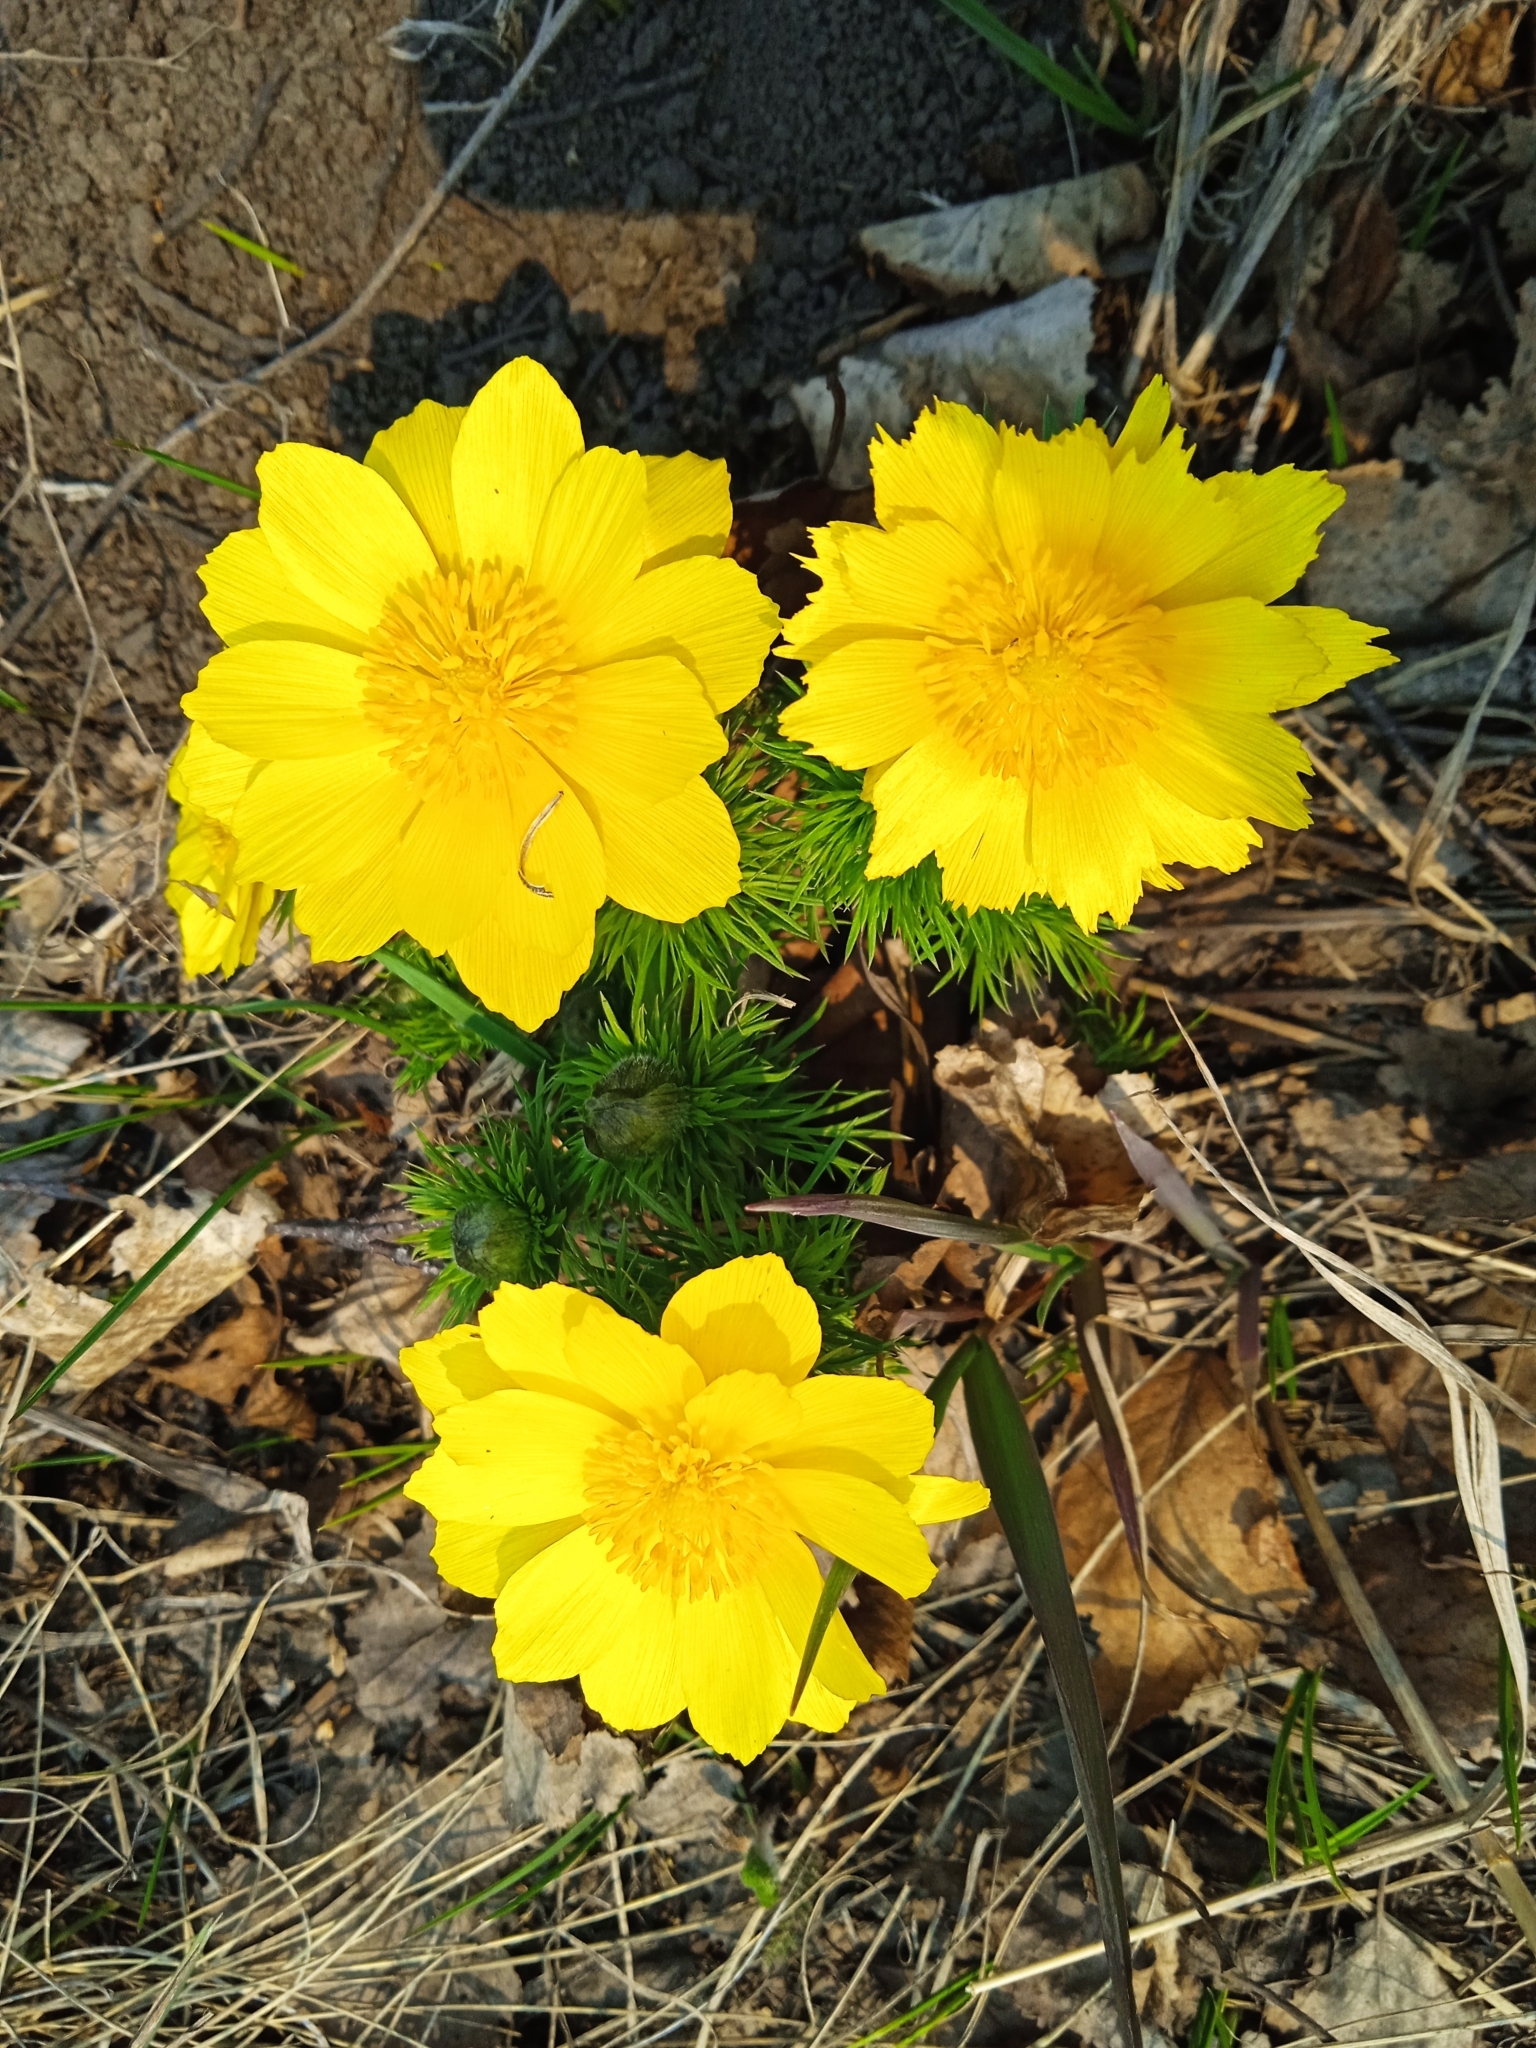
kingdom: Plantae
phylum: Tracheophyta
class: Magnoliopsida
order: Ranunculales
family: Ranunculaceae
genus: Adonis
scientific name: Adonis vernalis
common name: Yellow pheasants-eye
